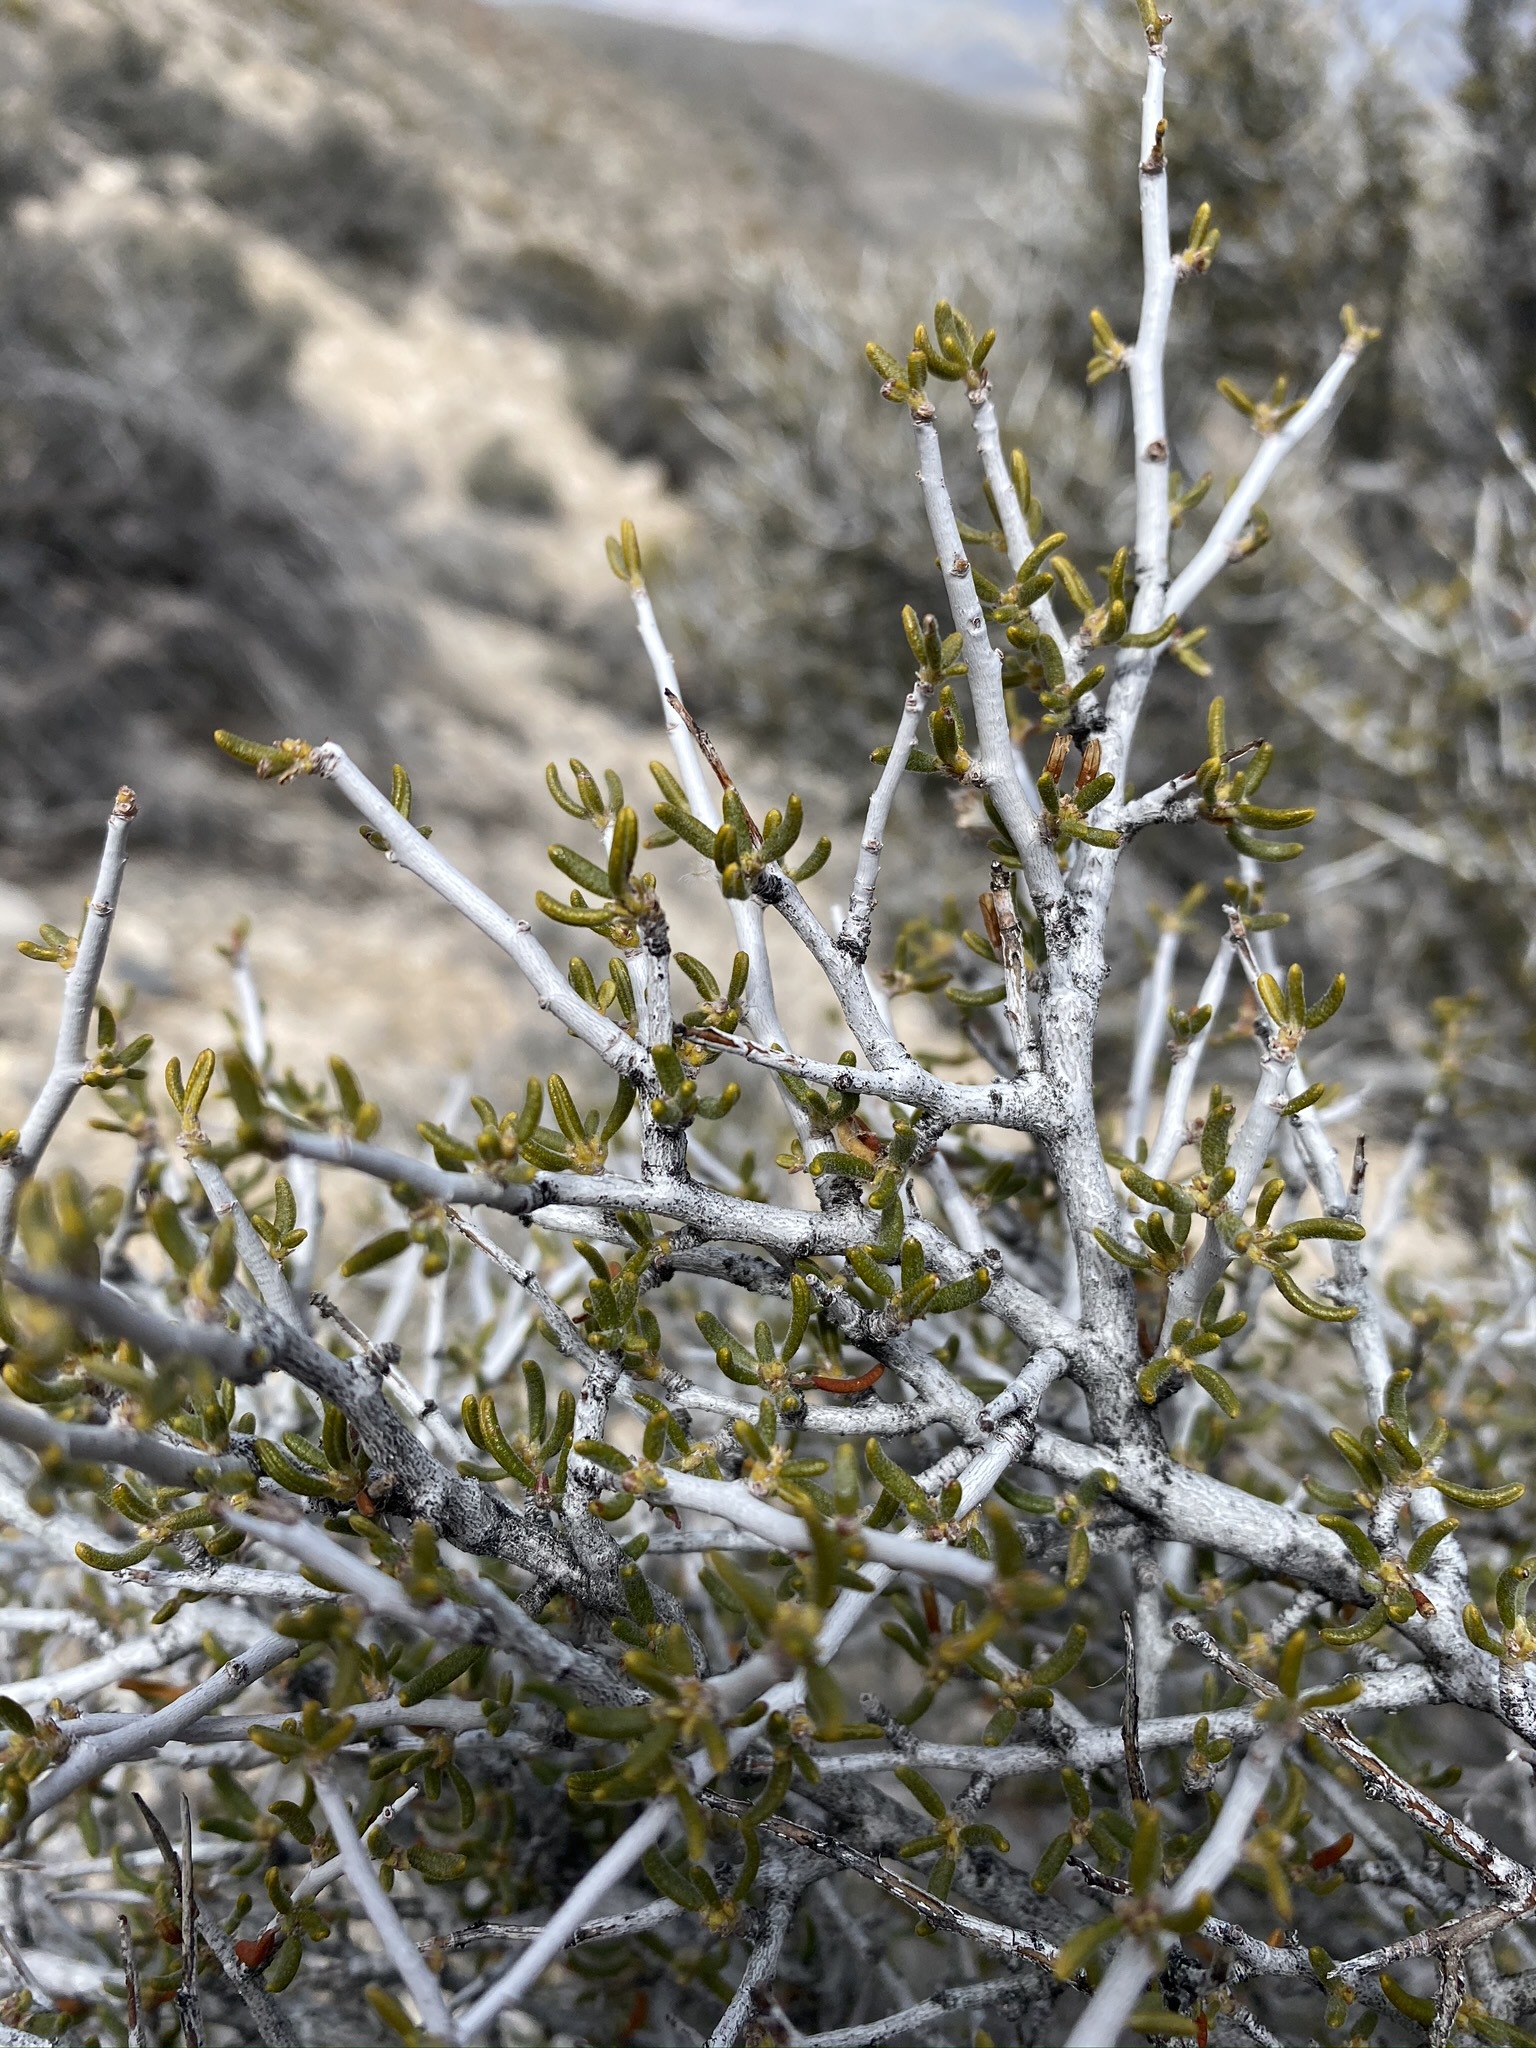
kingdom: Plantae
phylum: Tracheophyta
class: Magnoliopsida
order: Rosales
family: Rosaceae
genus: Cercocarpus
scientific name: Cercocarpus intricatus
